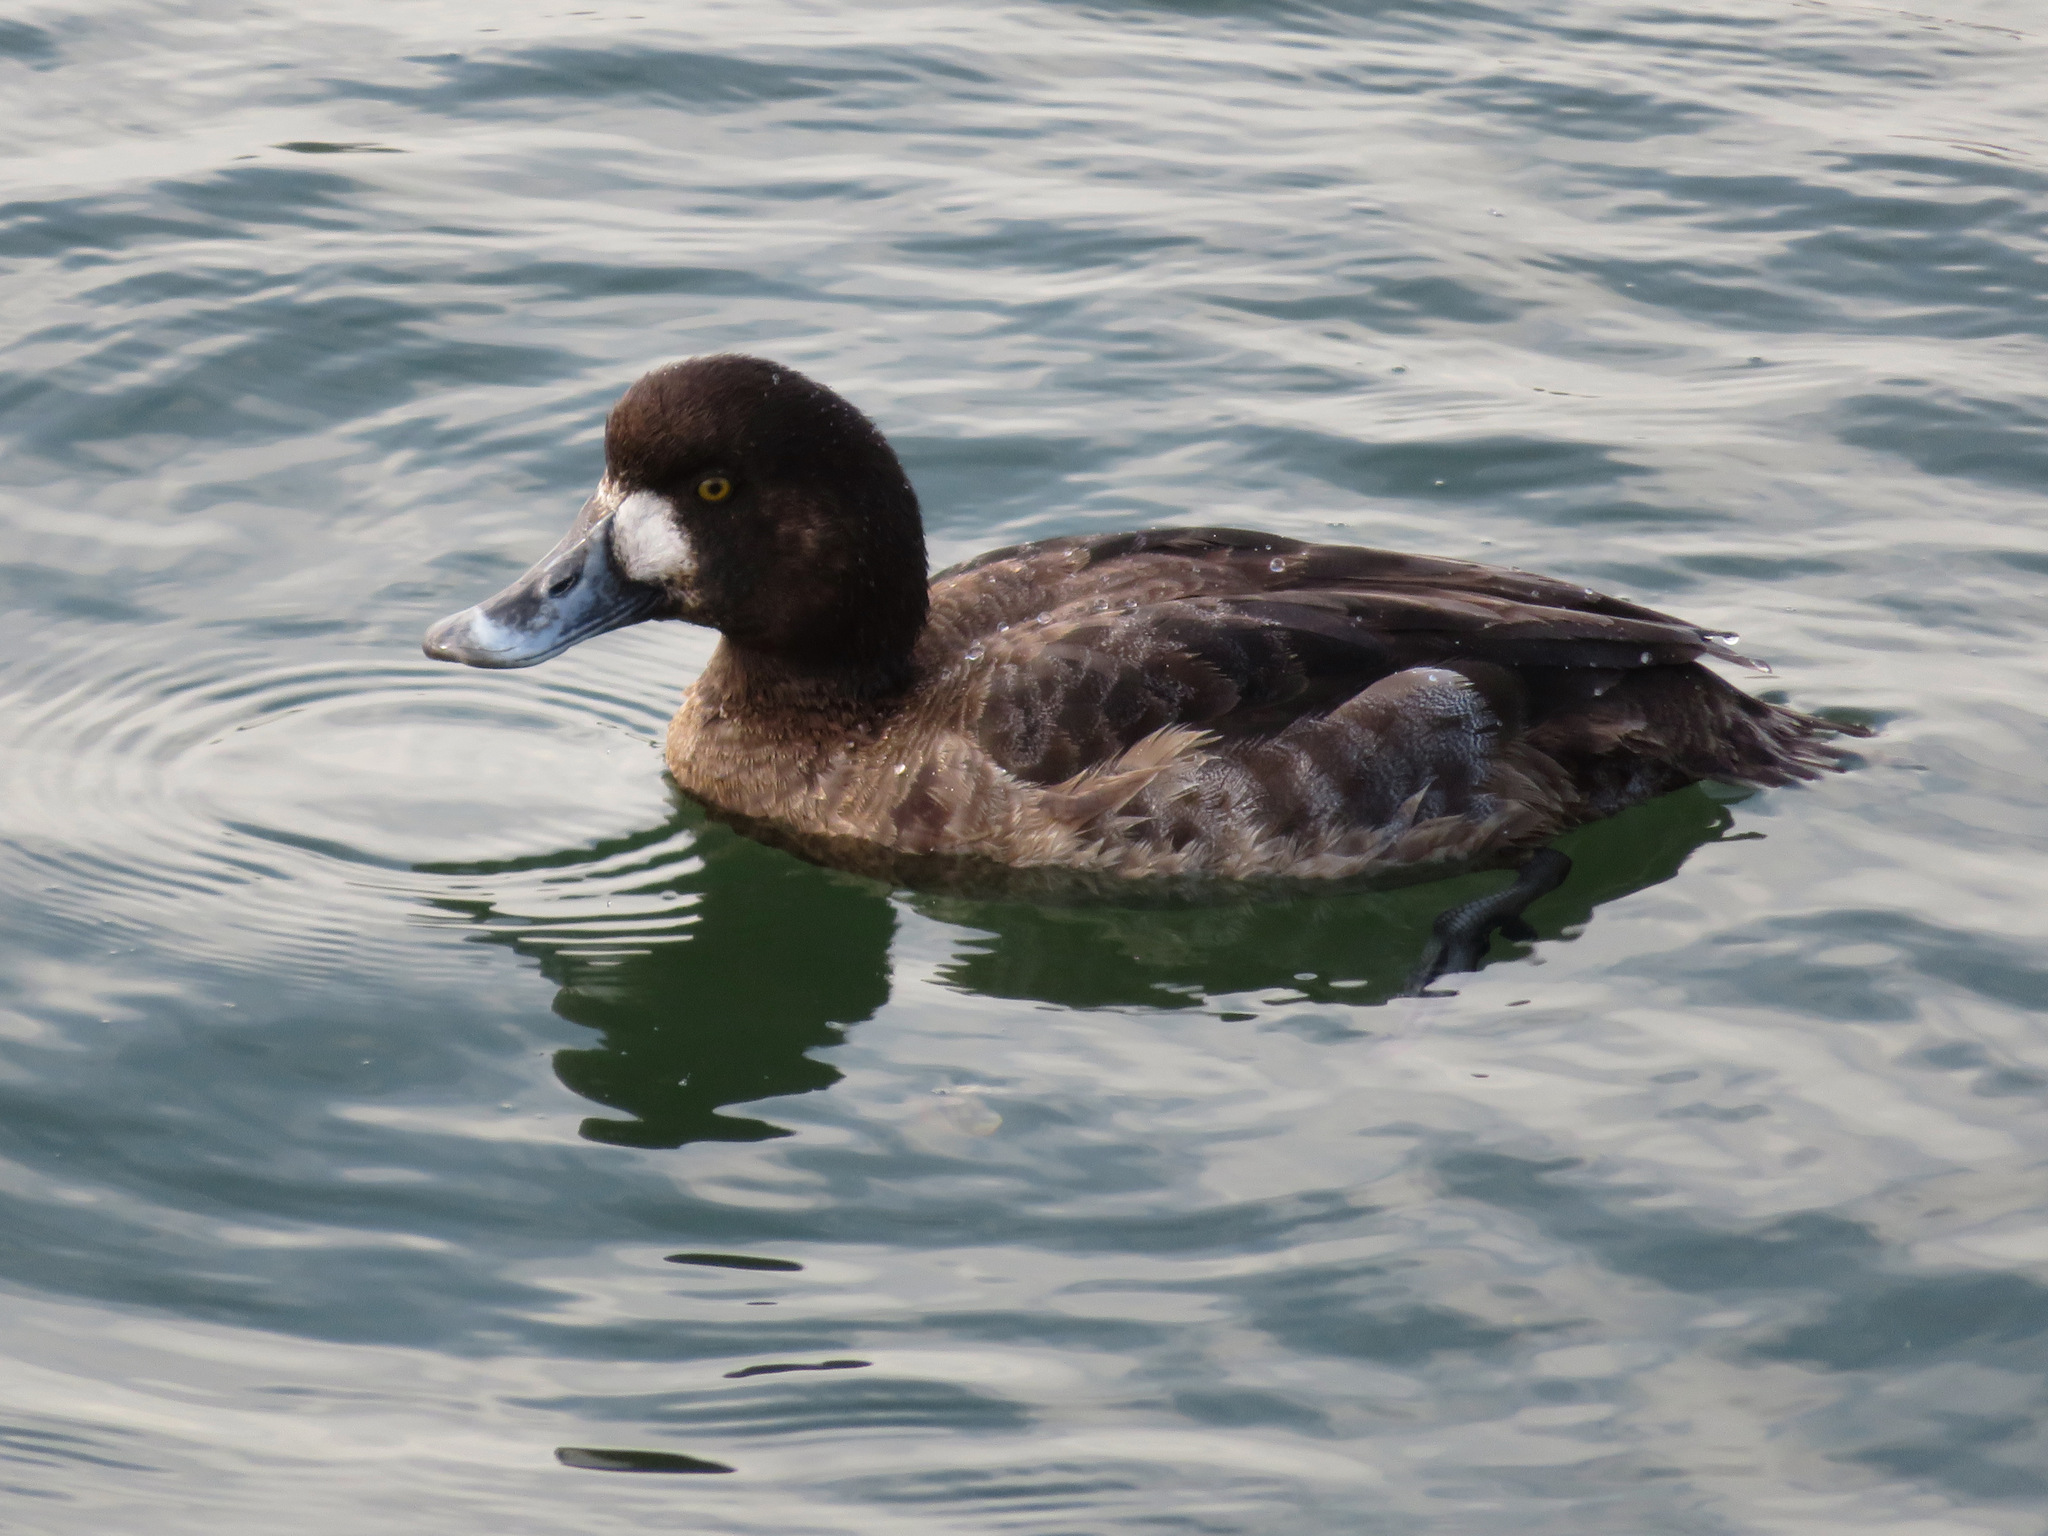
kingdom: Animalia
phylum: Chordata
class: Aves
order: Anseriformes
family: Anatidae
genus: Aythya
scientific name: Aythya marila
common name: Greater scaup
